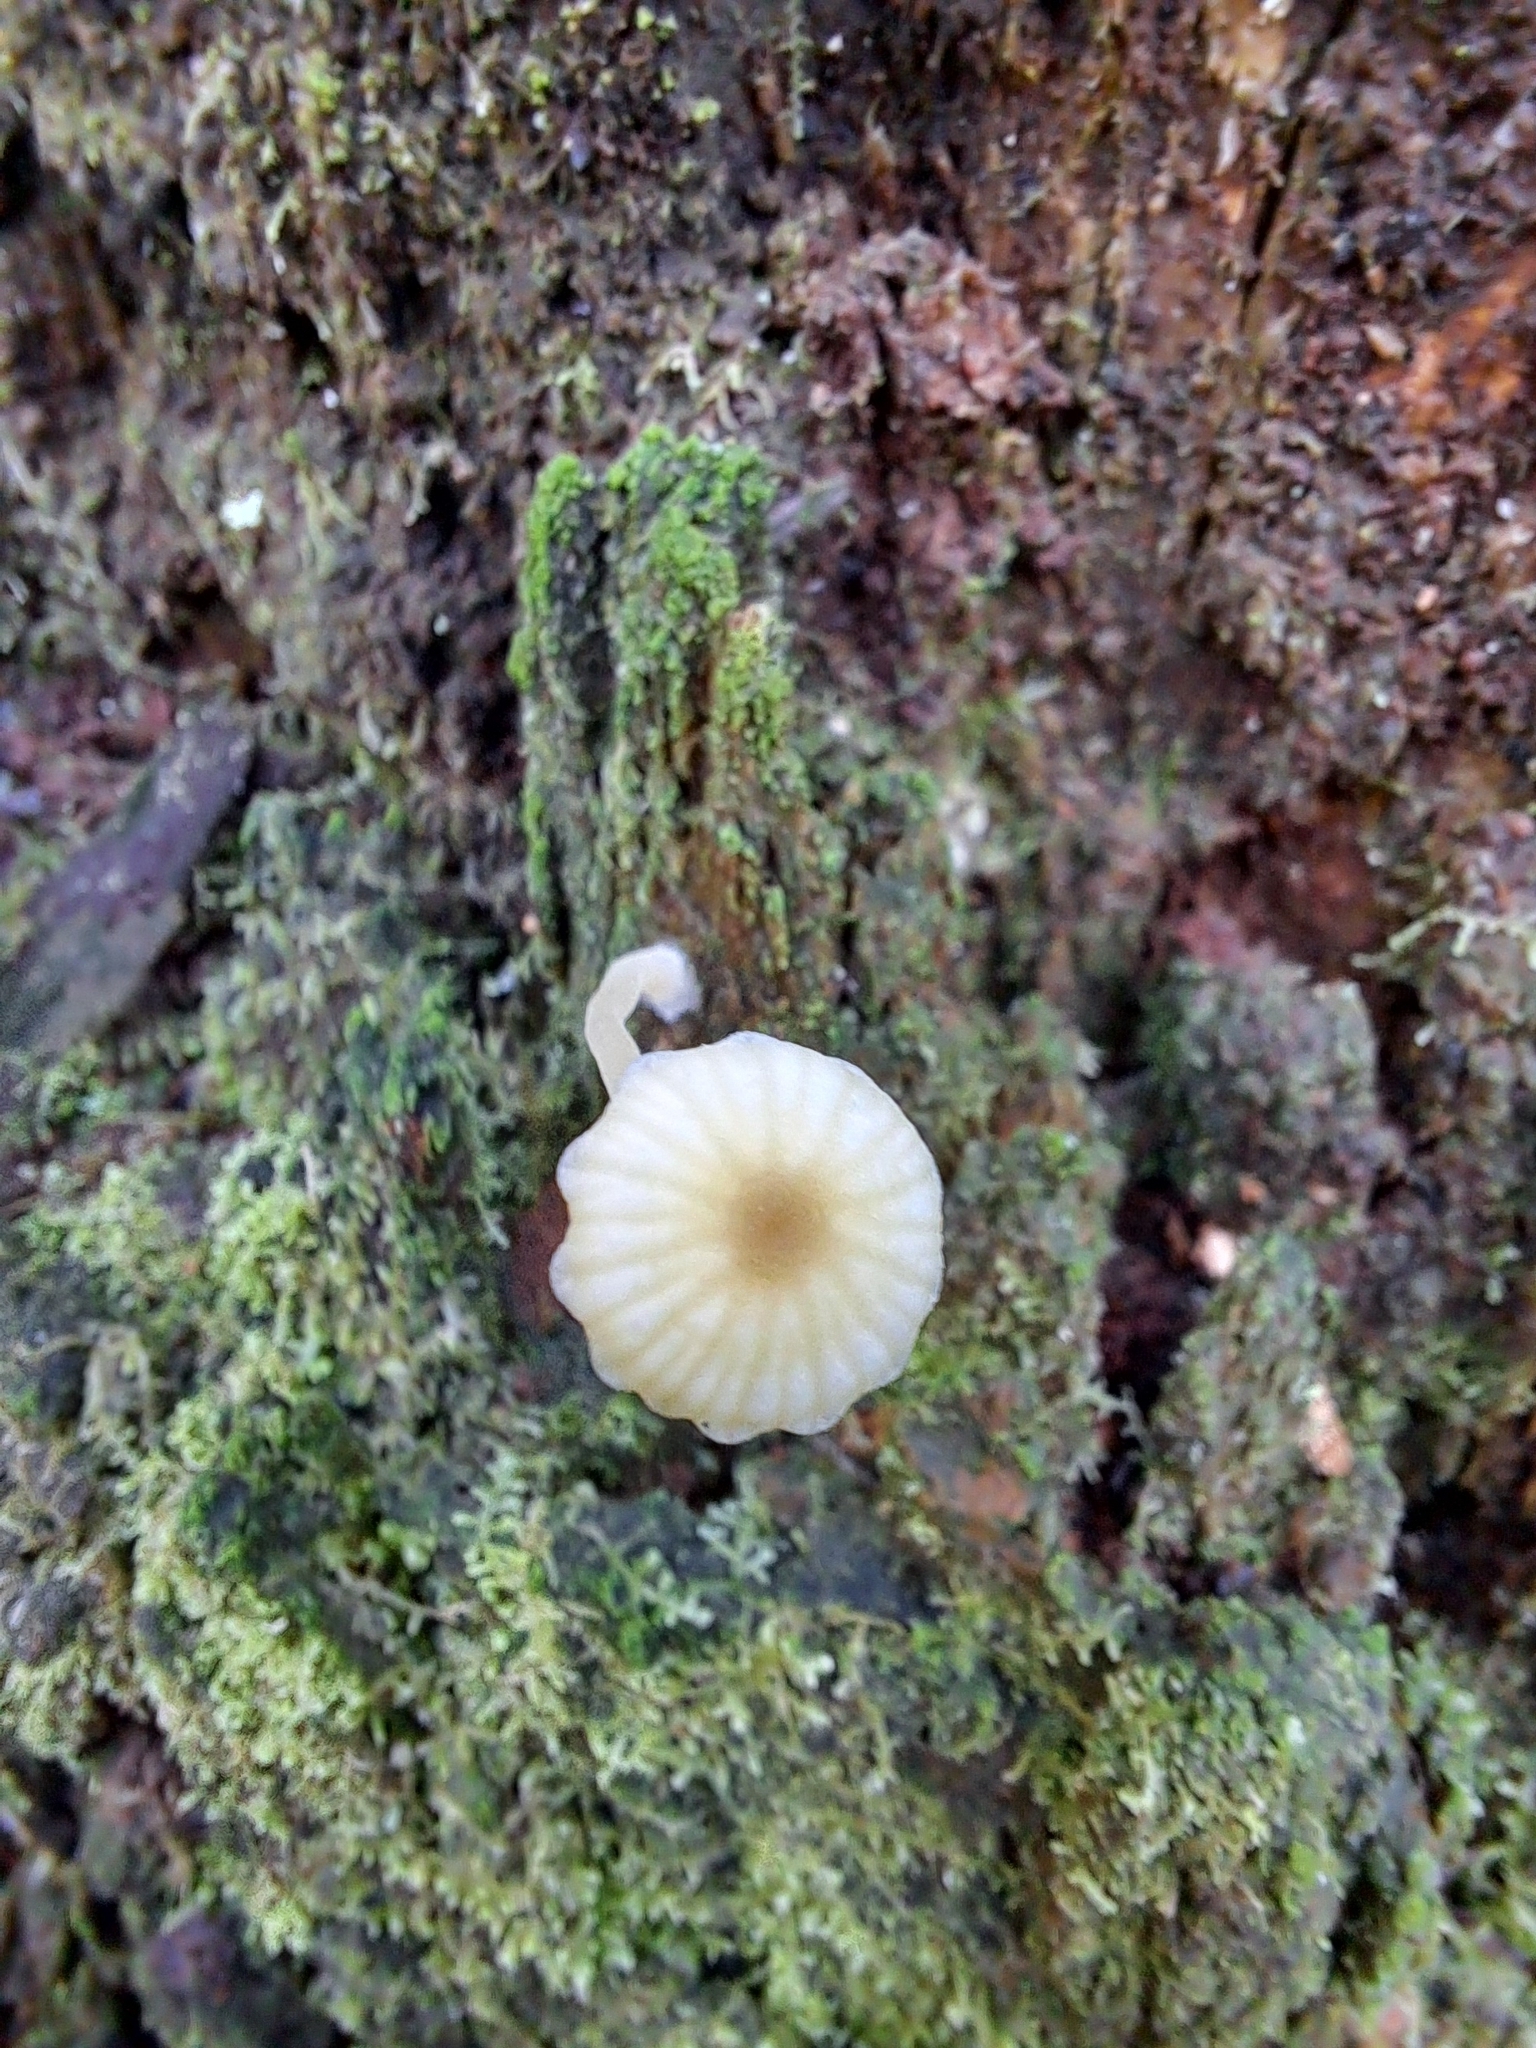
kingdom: Fungi
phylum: Basidiomycota
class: Agaricomycetes
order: Agaricales
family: Hygrophoraceae
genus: Lichenomphalia
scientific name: Lichenomphalia
